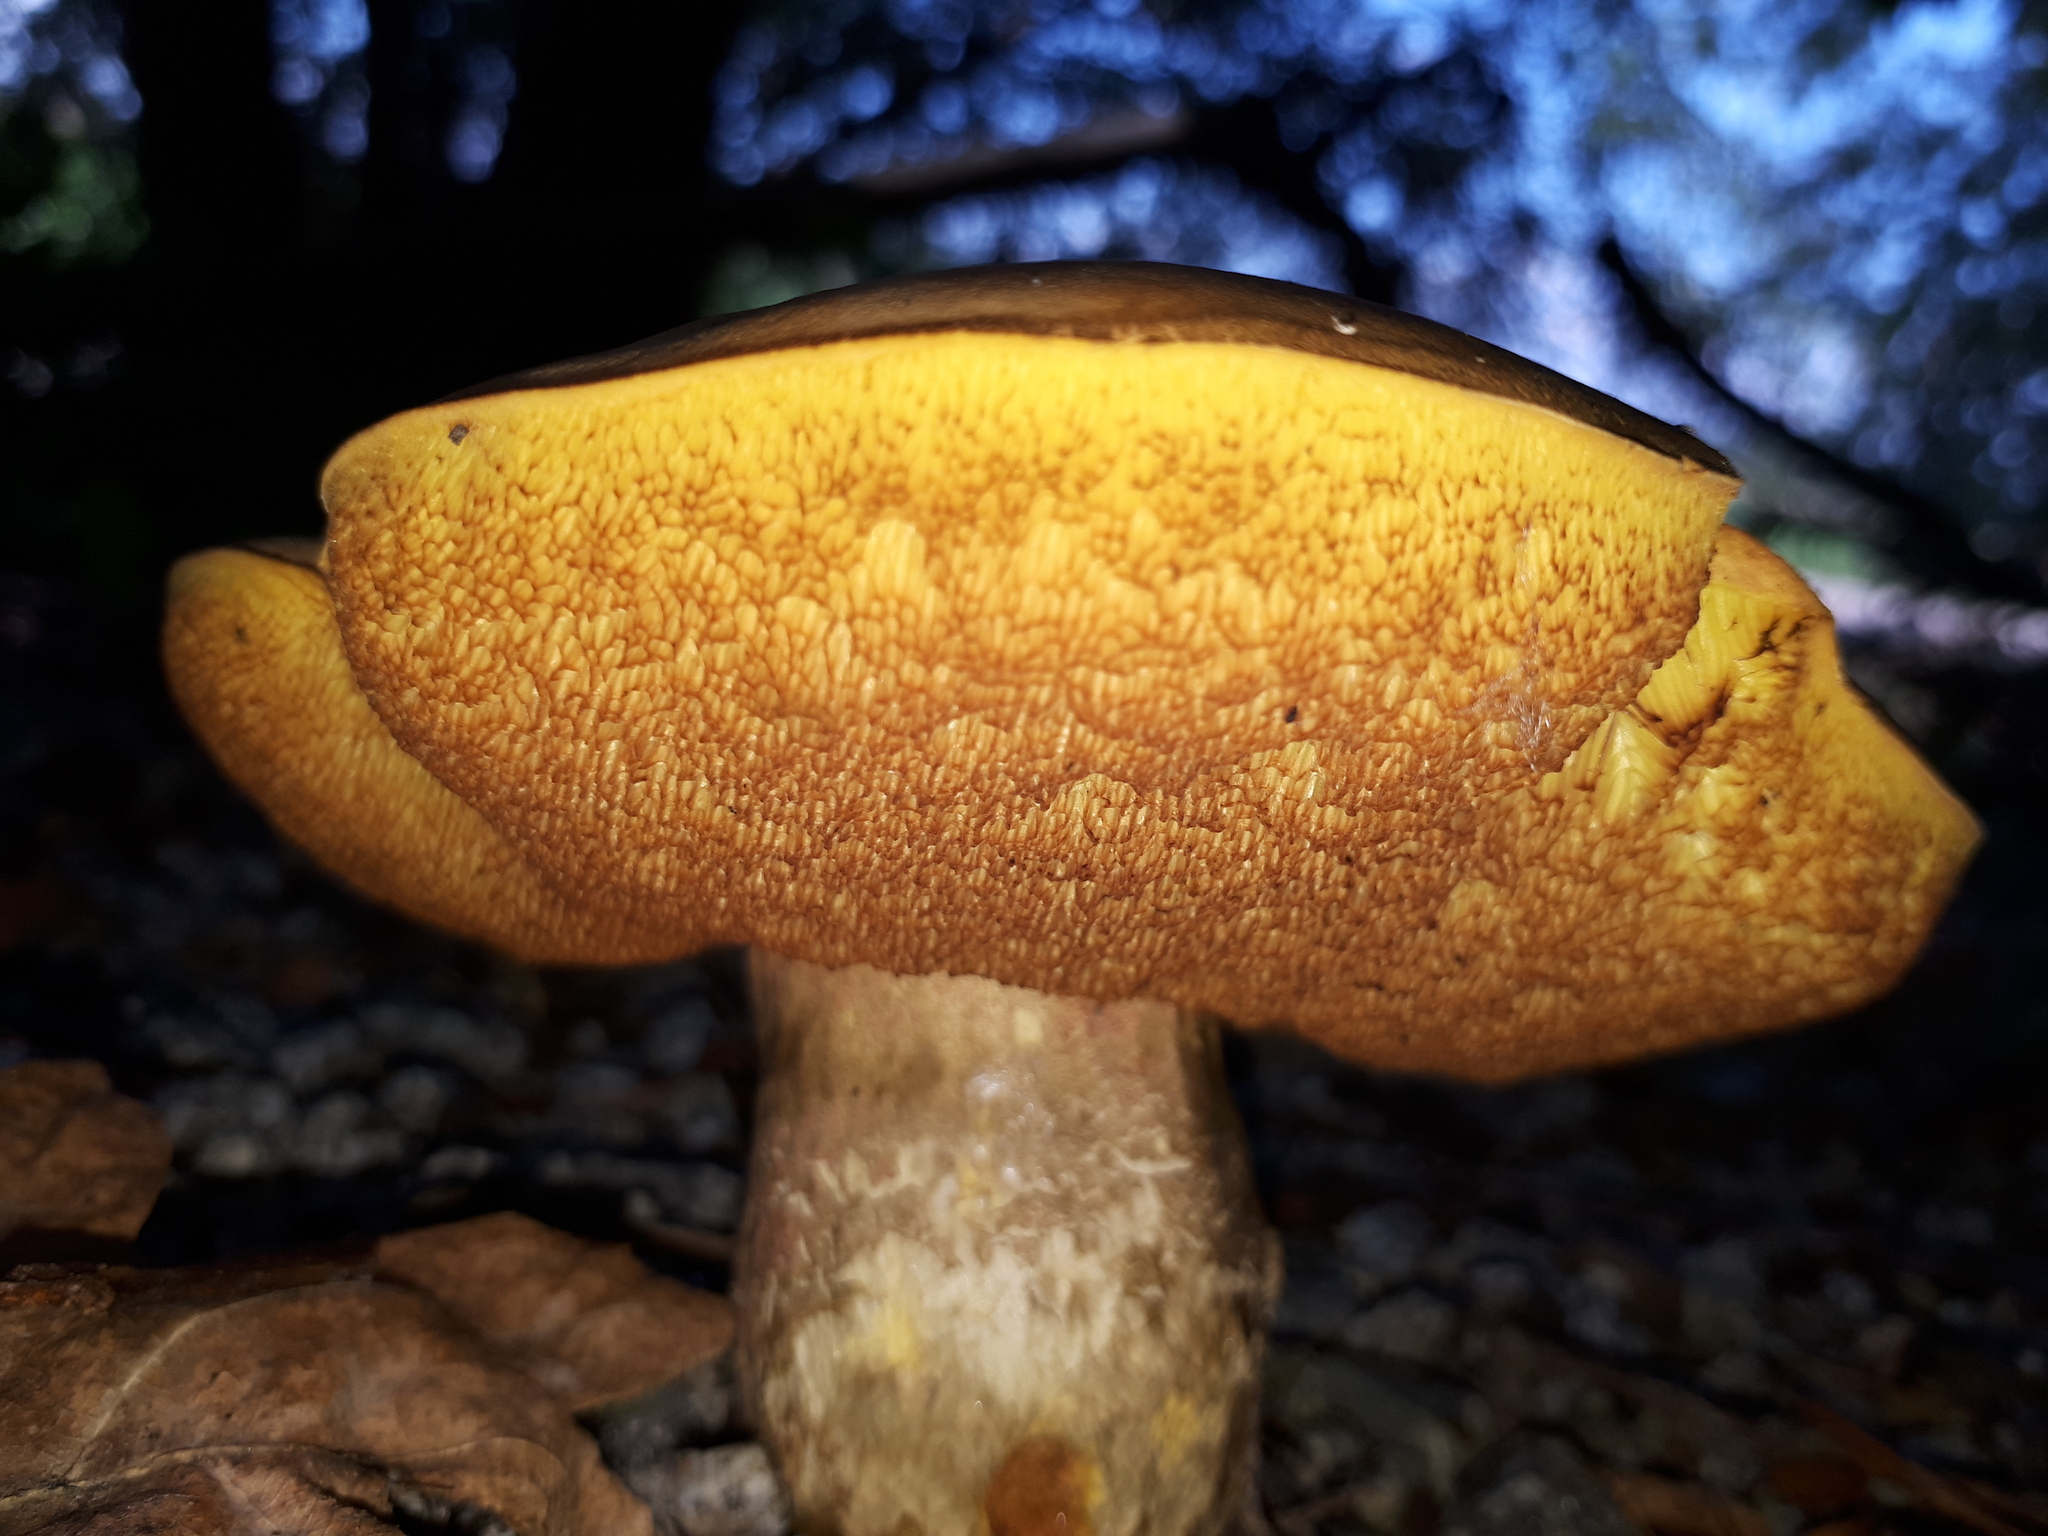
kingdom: Fungi
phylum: Basidiomycota
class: Agaricomycetes
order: Boletales
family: Boletaceae
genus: Neoboletus
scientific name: Neoboletus xanthopus
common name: False yellow bolete
